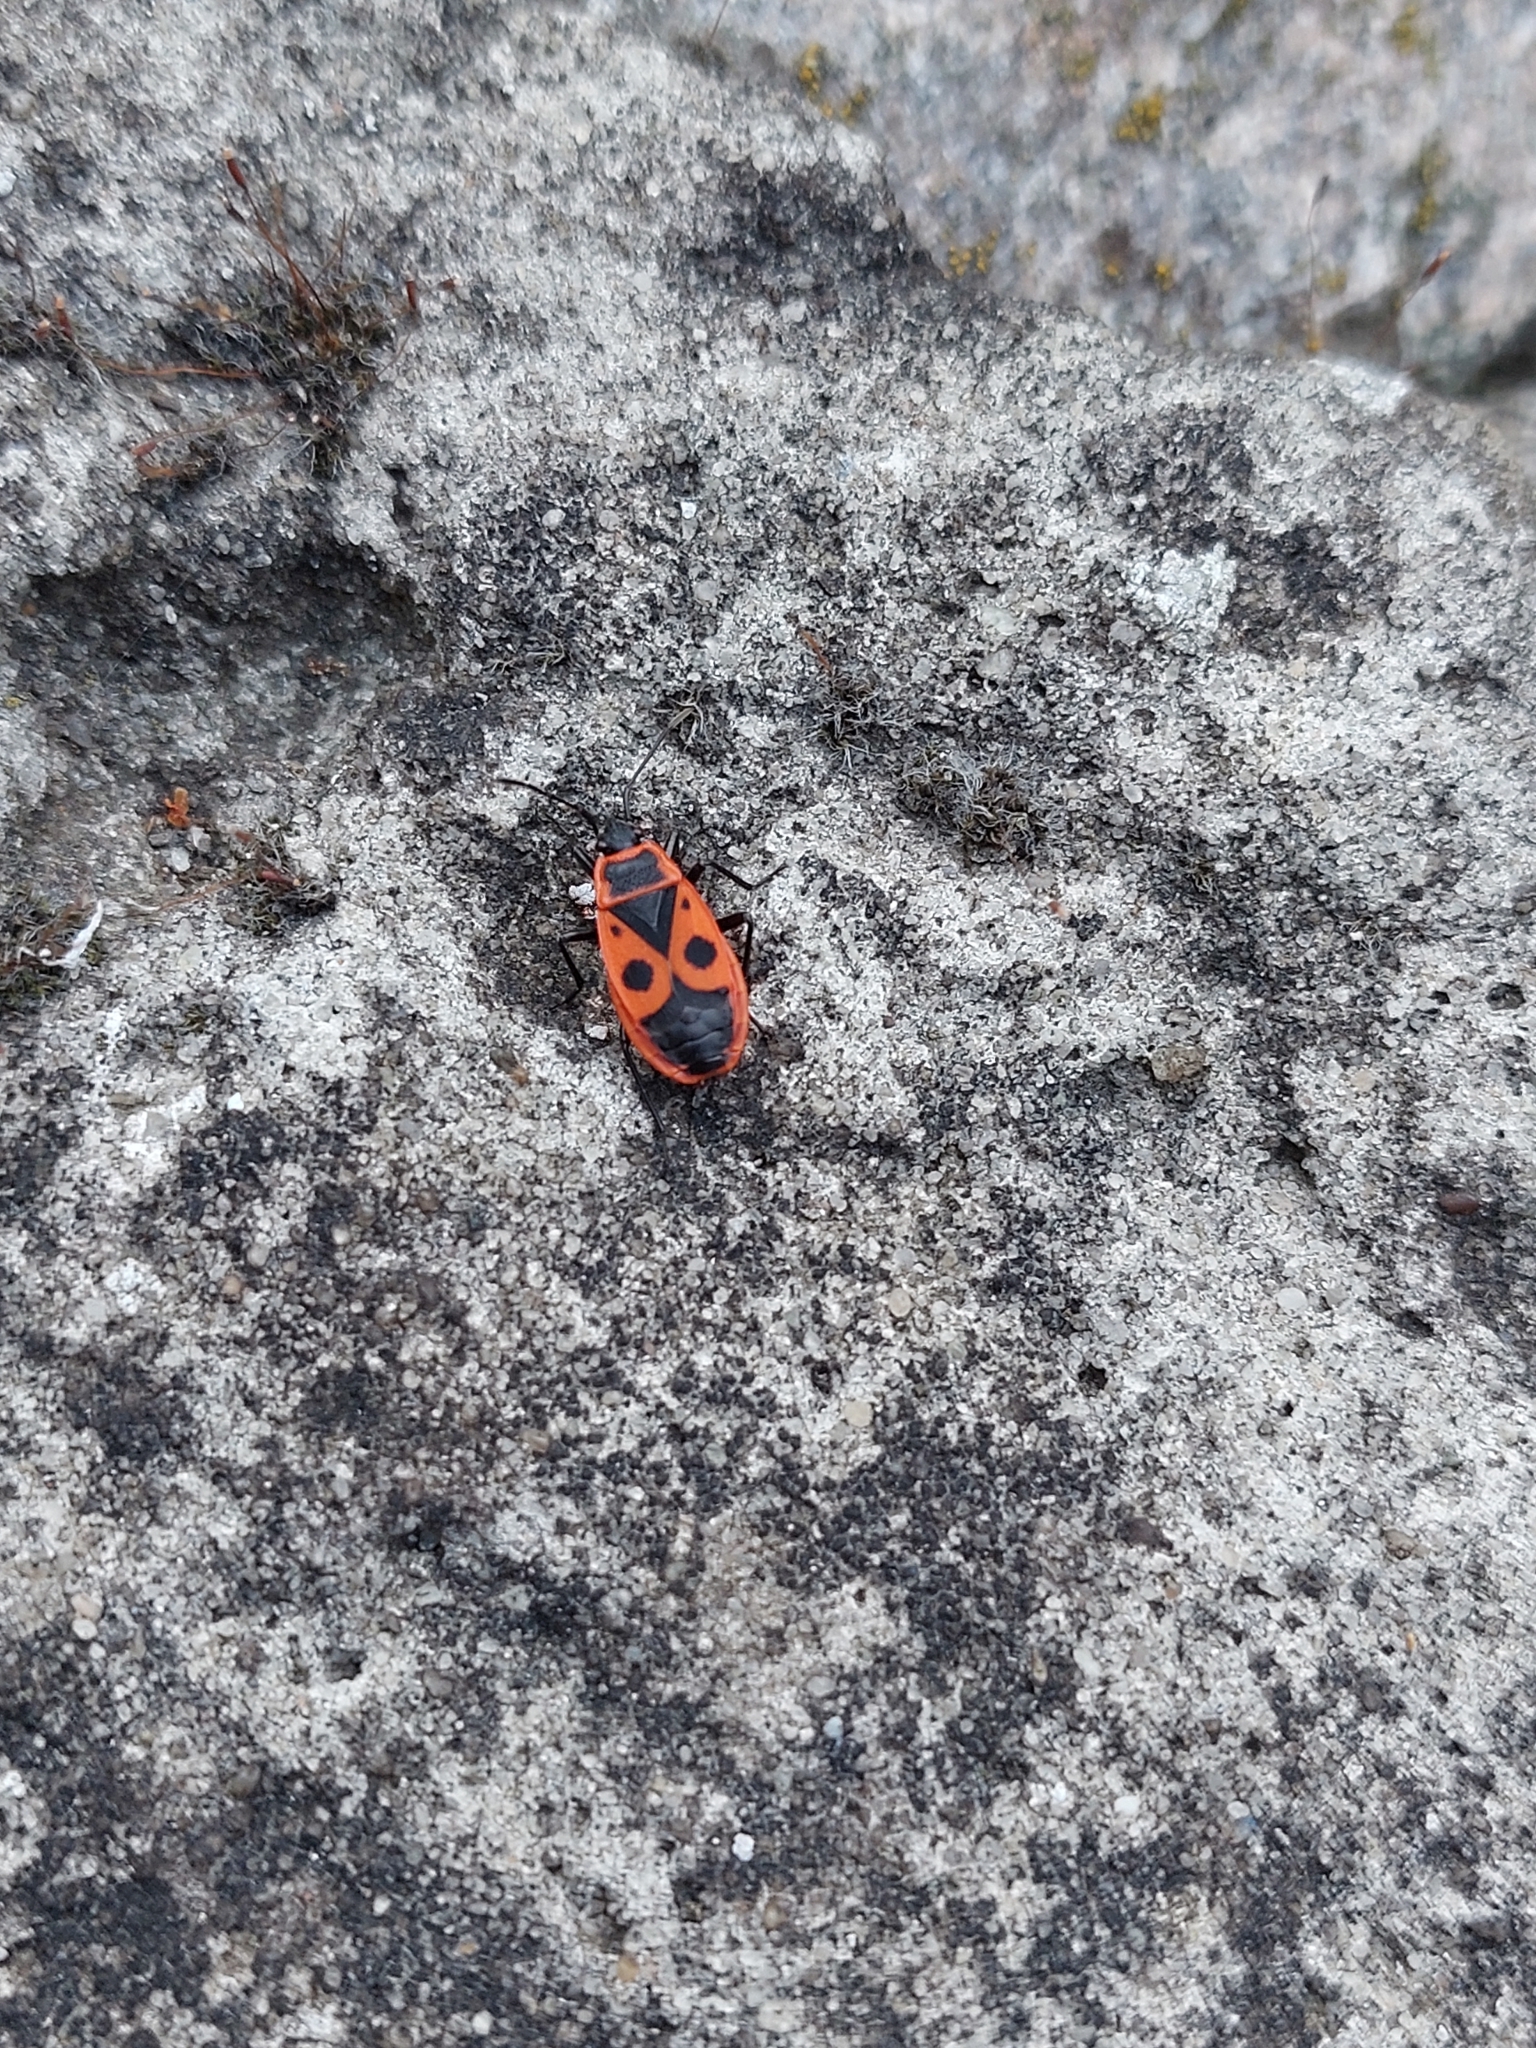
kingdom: Animalia
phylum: Arthropoda
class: Insecta
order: Hemiptera
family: Pyrrhocoridae
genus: Pyrrhocoris
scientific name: Pyrrhocoris apterus
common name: Firebug
